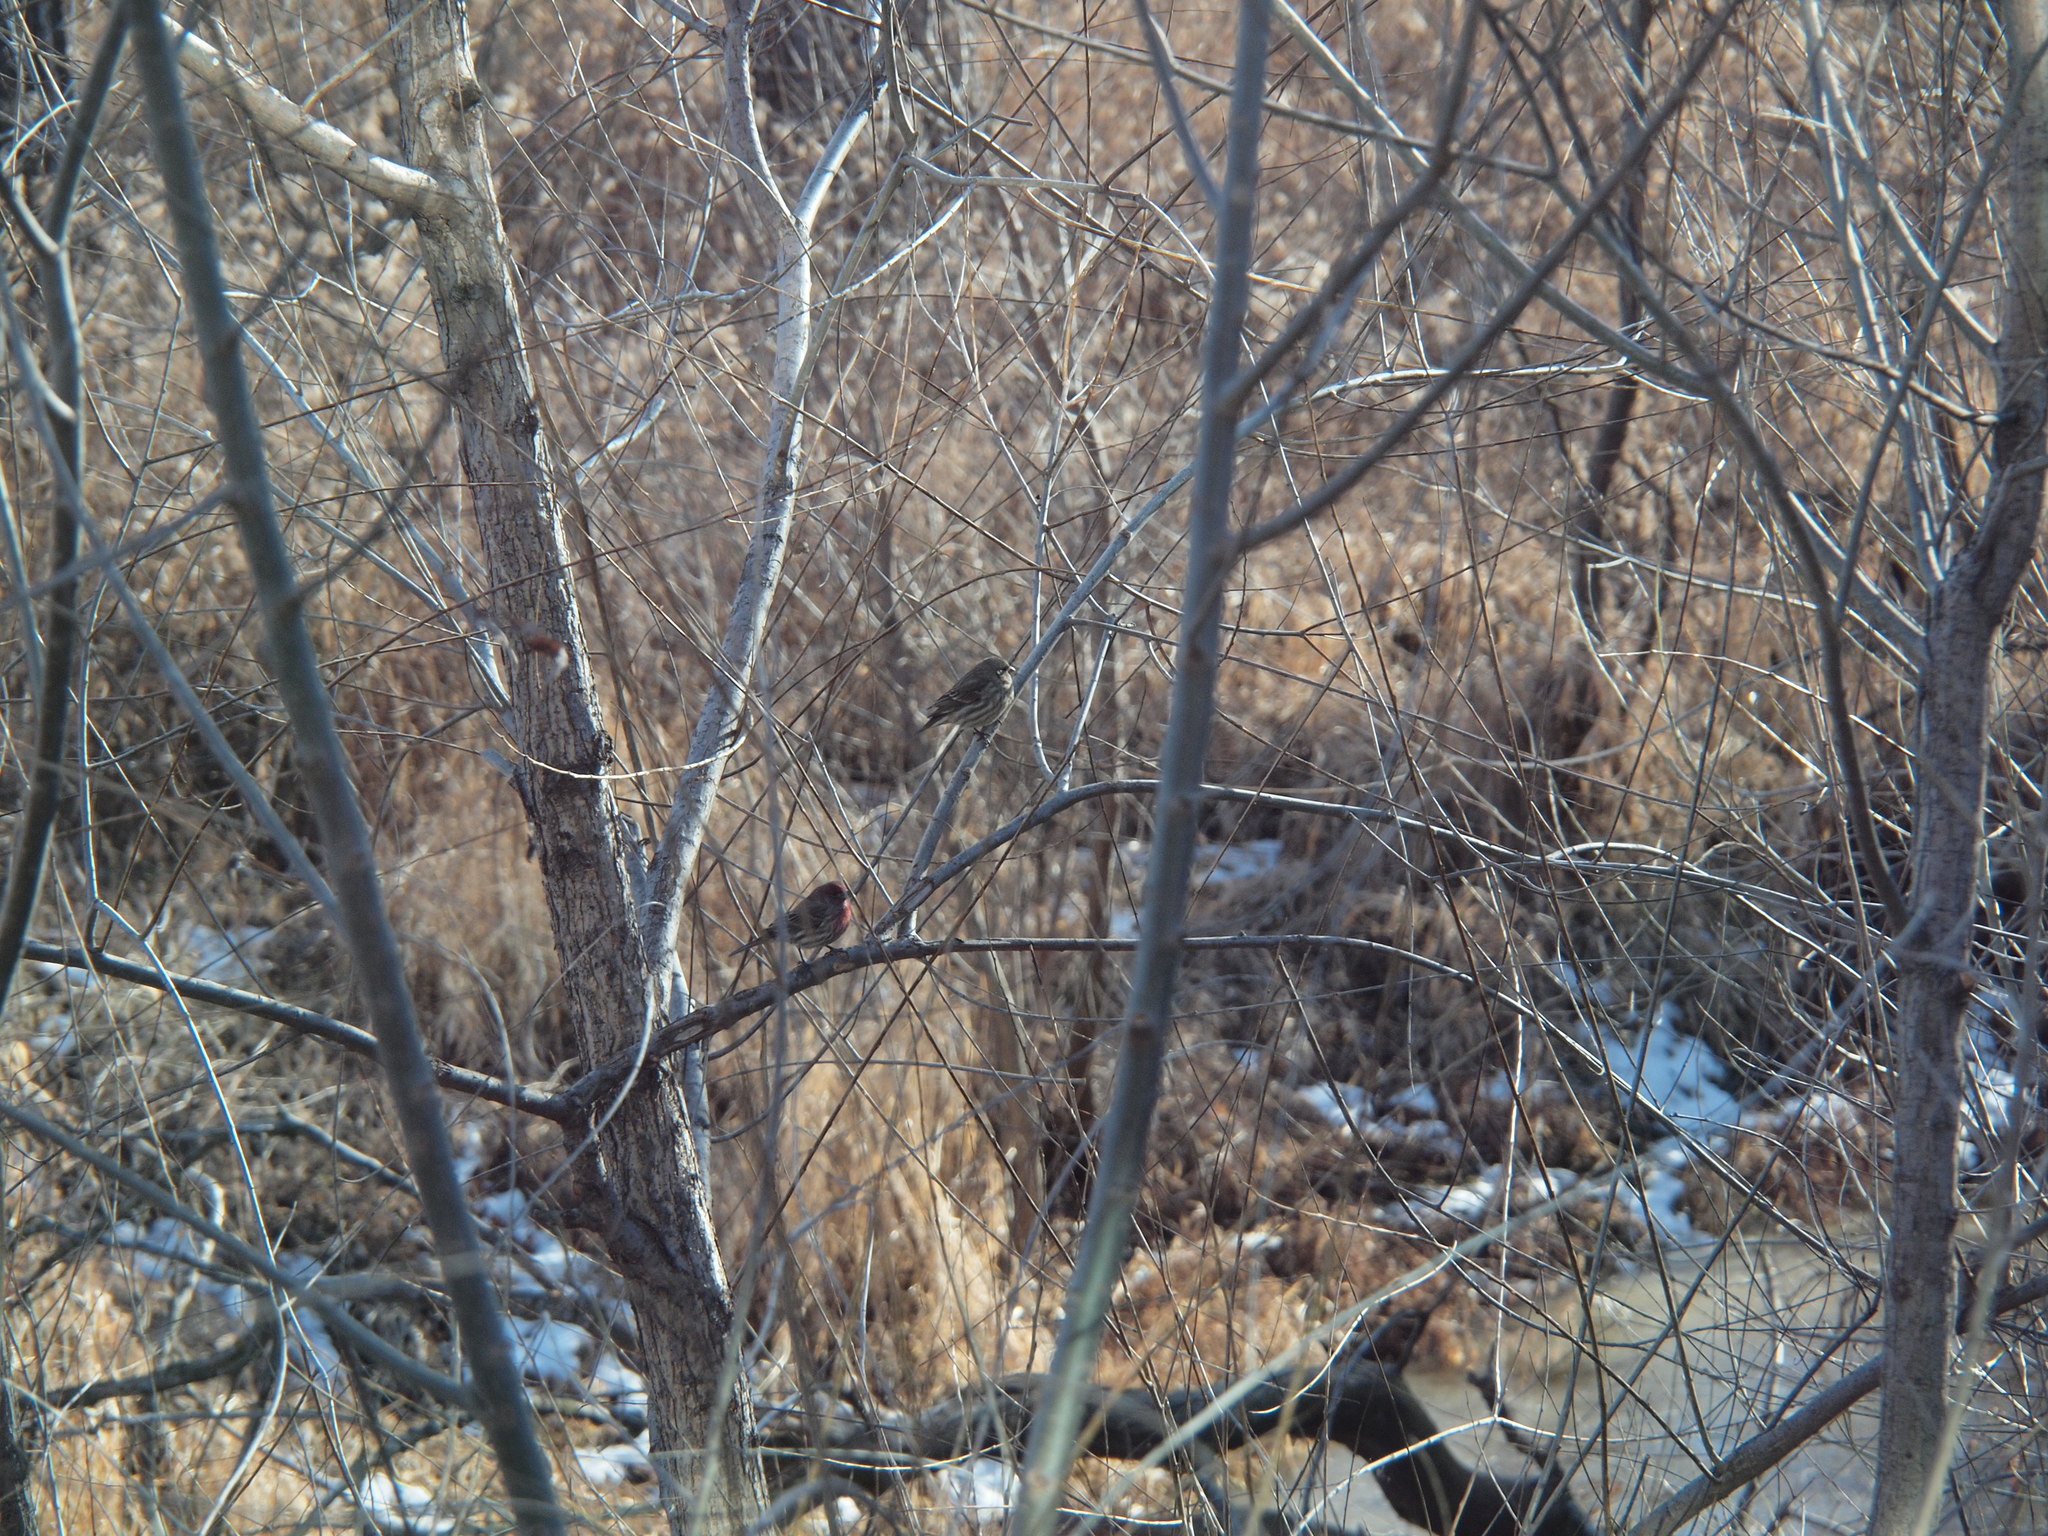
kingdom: Animalia
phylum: Chordata
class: Aves
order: Passeriformes
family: Fringillidae
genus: Haemorhous
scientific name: Haemorhous mexicanus
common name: House finch
